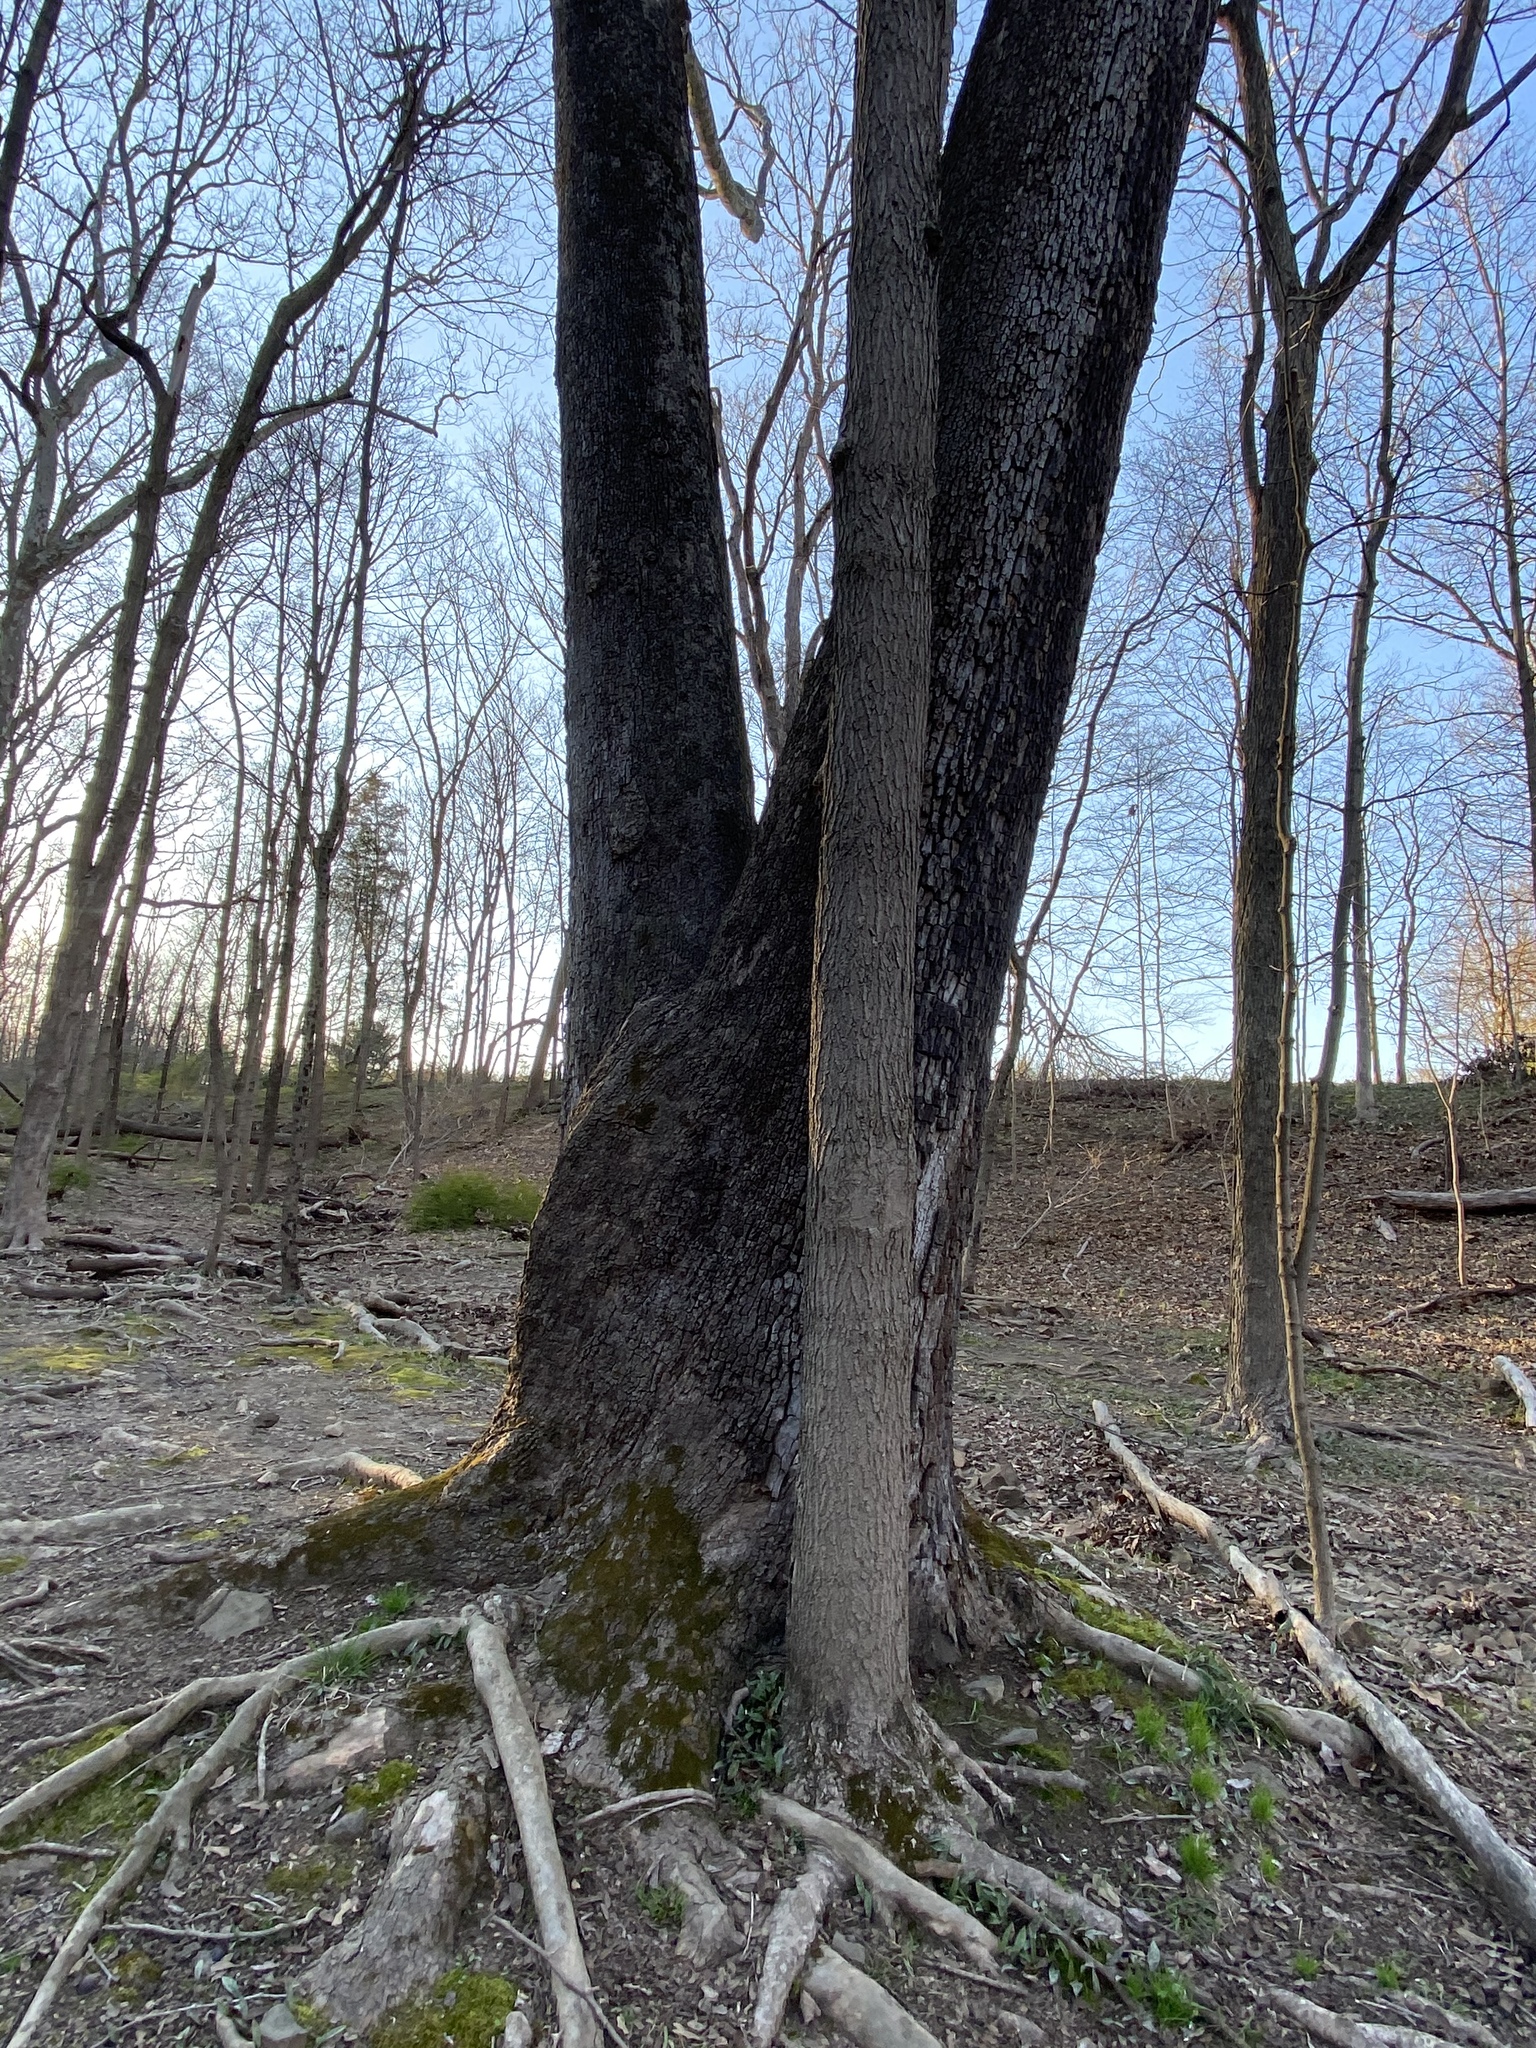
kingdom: Plantae
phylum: Tracheophyta
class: Magnoliopsida
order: Proteales
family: Platanaceae
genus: Platanus
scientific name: Platanus occidentalis
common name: American sycamore
